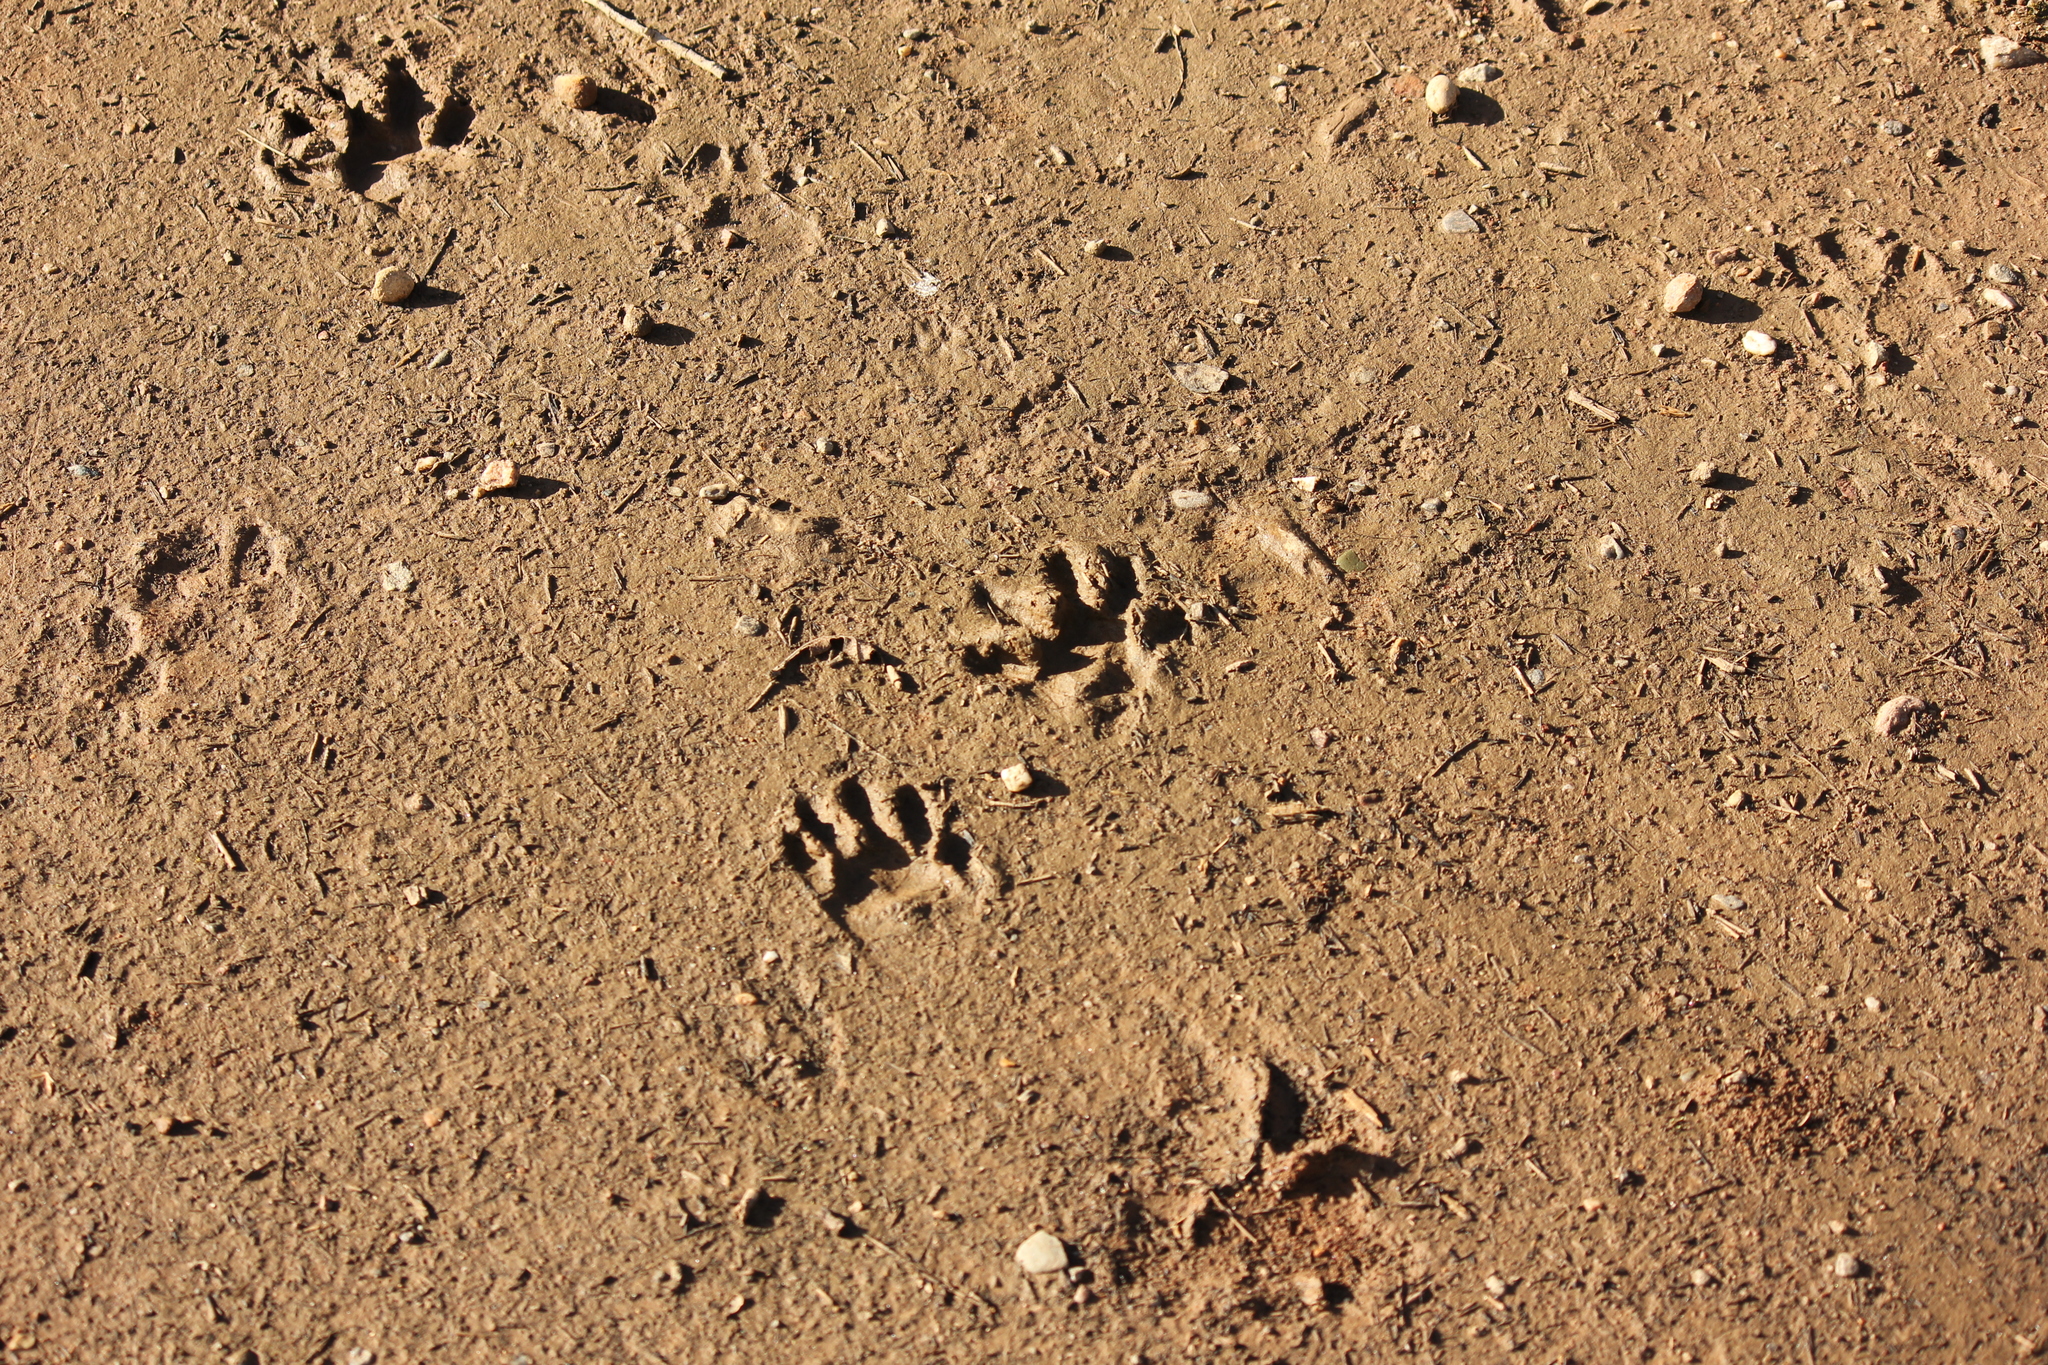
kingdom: Animalia
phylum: Chordata
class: Mammalia
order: Carnivora
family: Procyonidae
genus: Procyon
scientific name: Procyon lotor
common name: Raccoon
